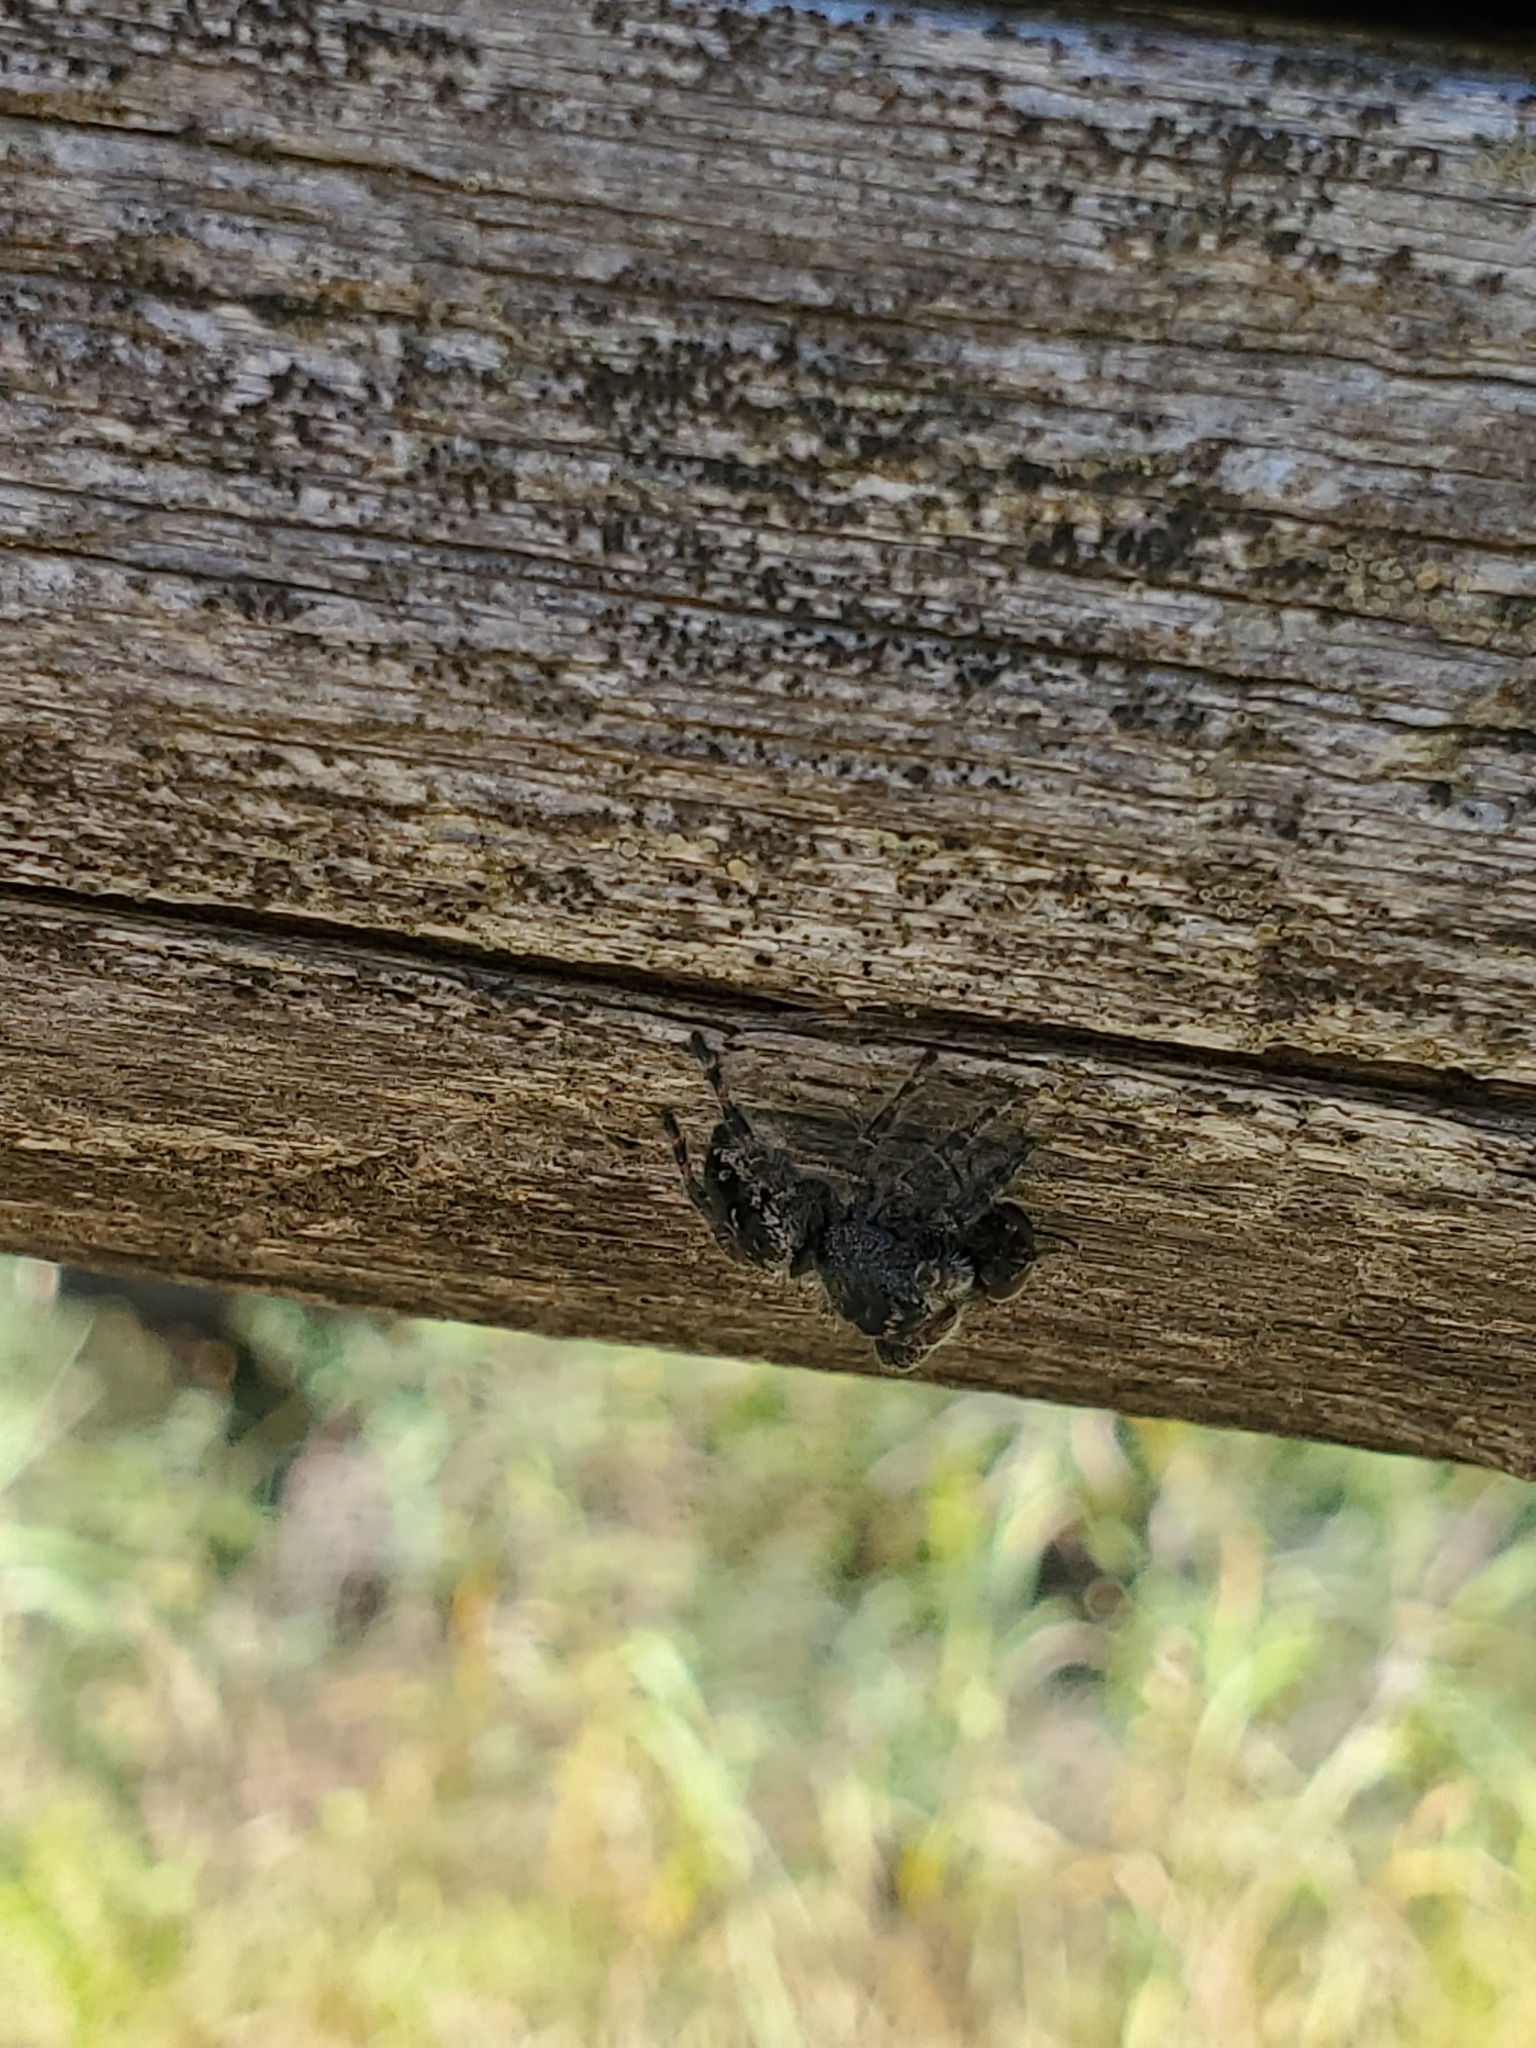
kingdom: Animalia
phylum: Arthropoda
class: Arachnida
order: Araneae
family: Salticidae
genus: Phidippus
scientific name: Phidippus borealis
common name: Boreal tufted jumping spider
